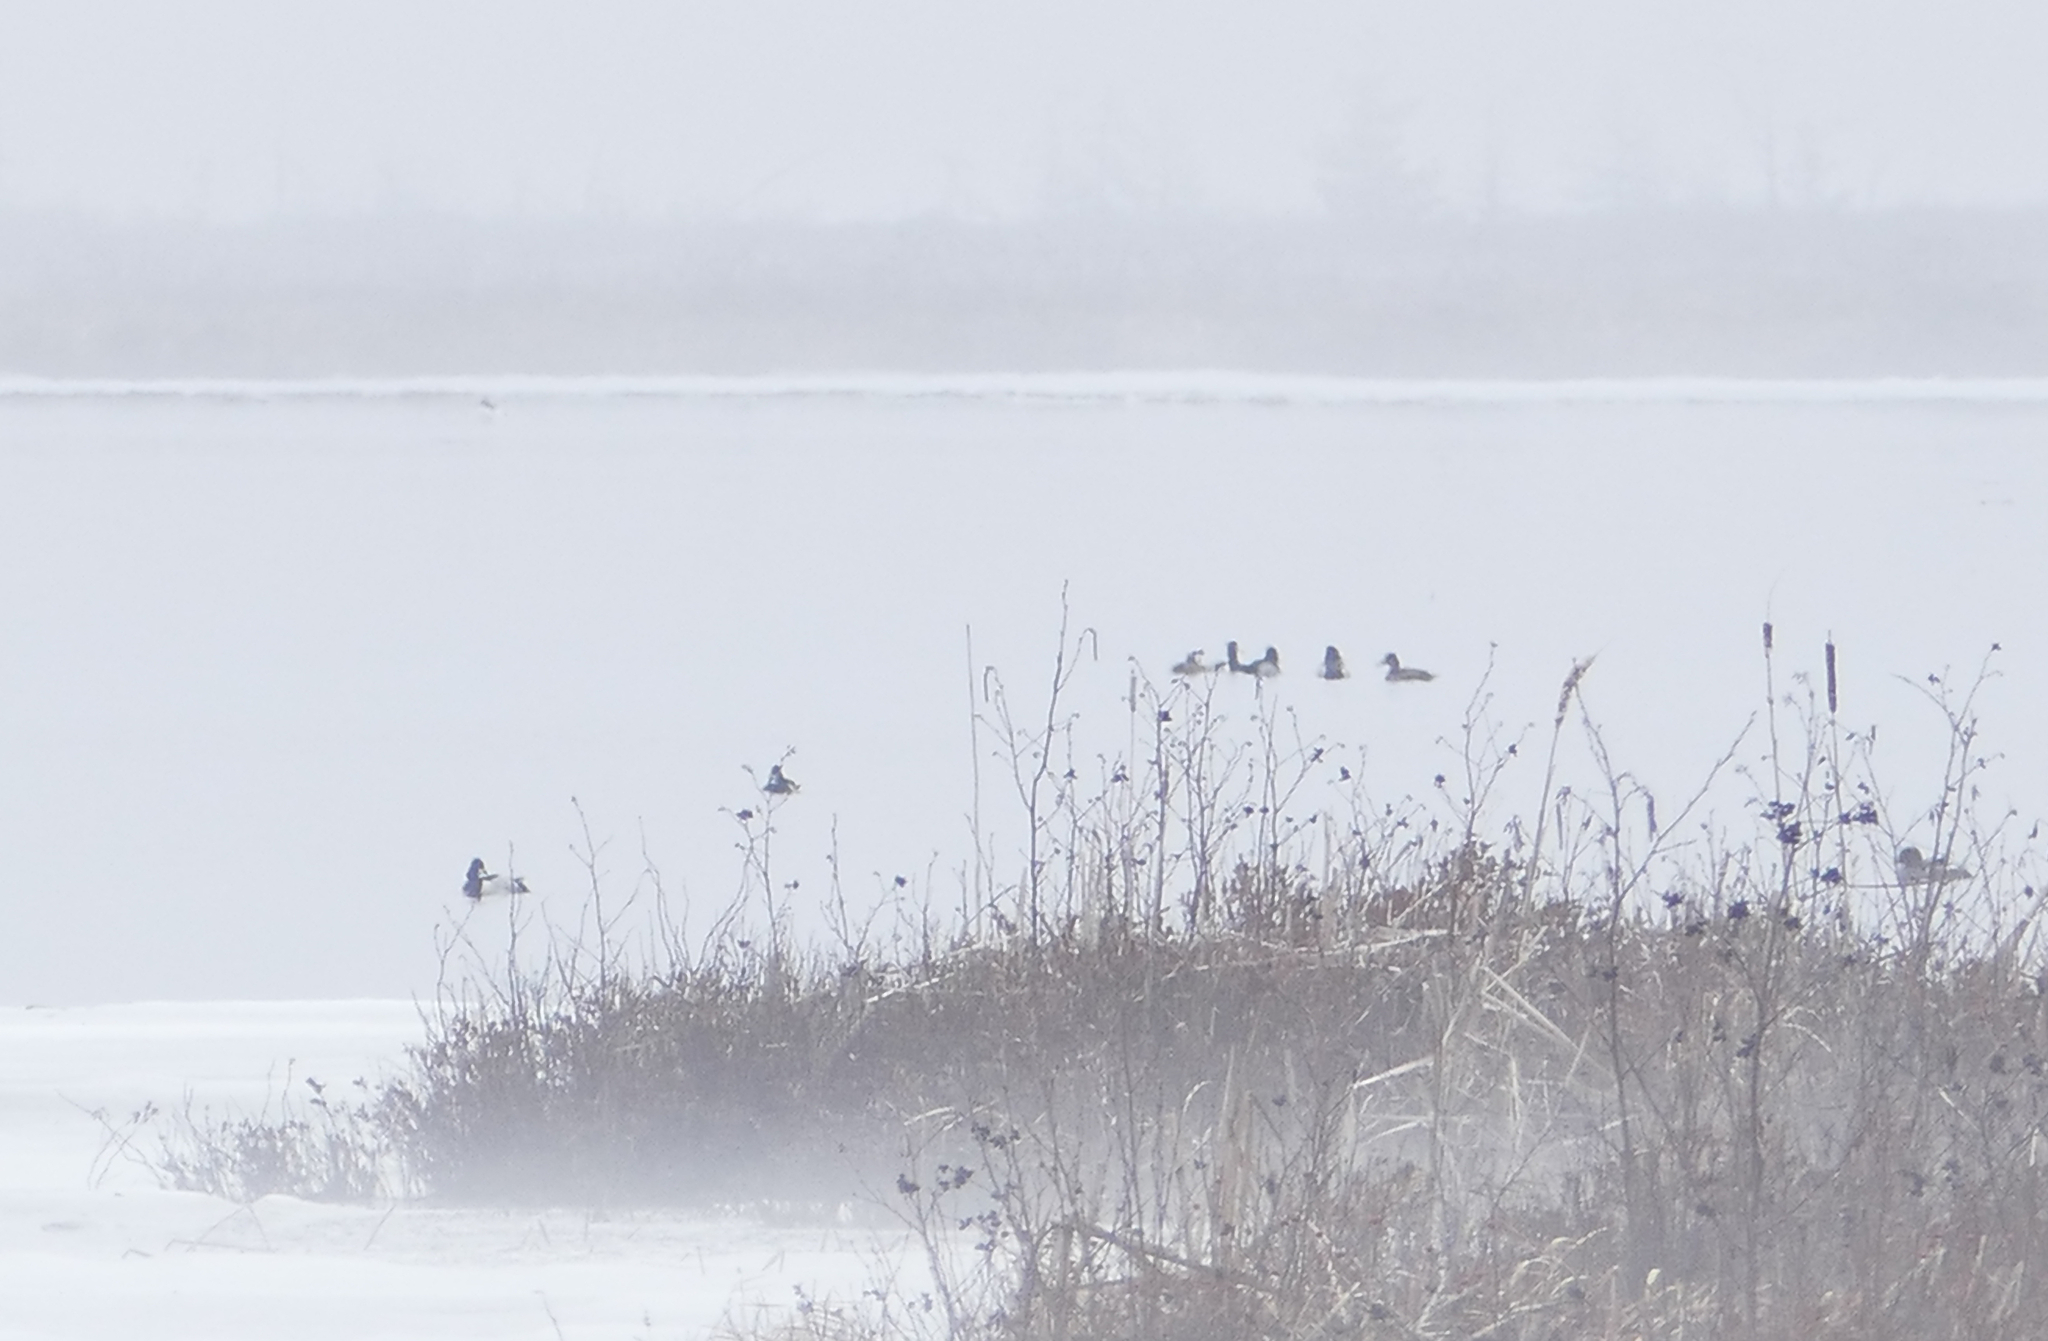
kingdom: Animalia
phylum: Chordata
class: Aves
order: Anseriformes
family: Anatidae
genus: Aythya
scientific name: Aythya collaris
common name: Ring-necked duck
